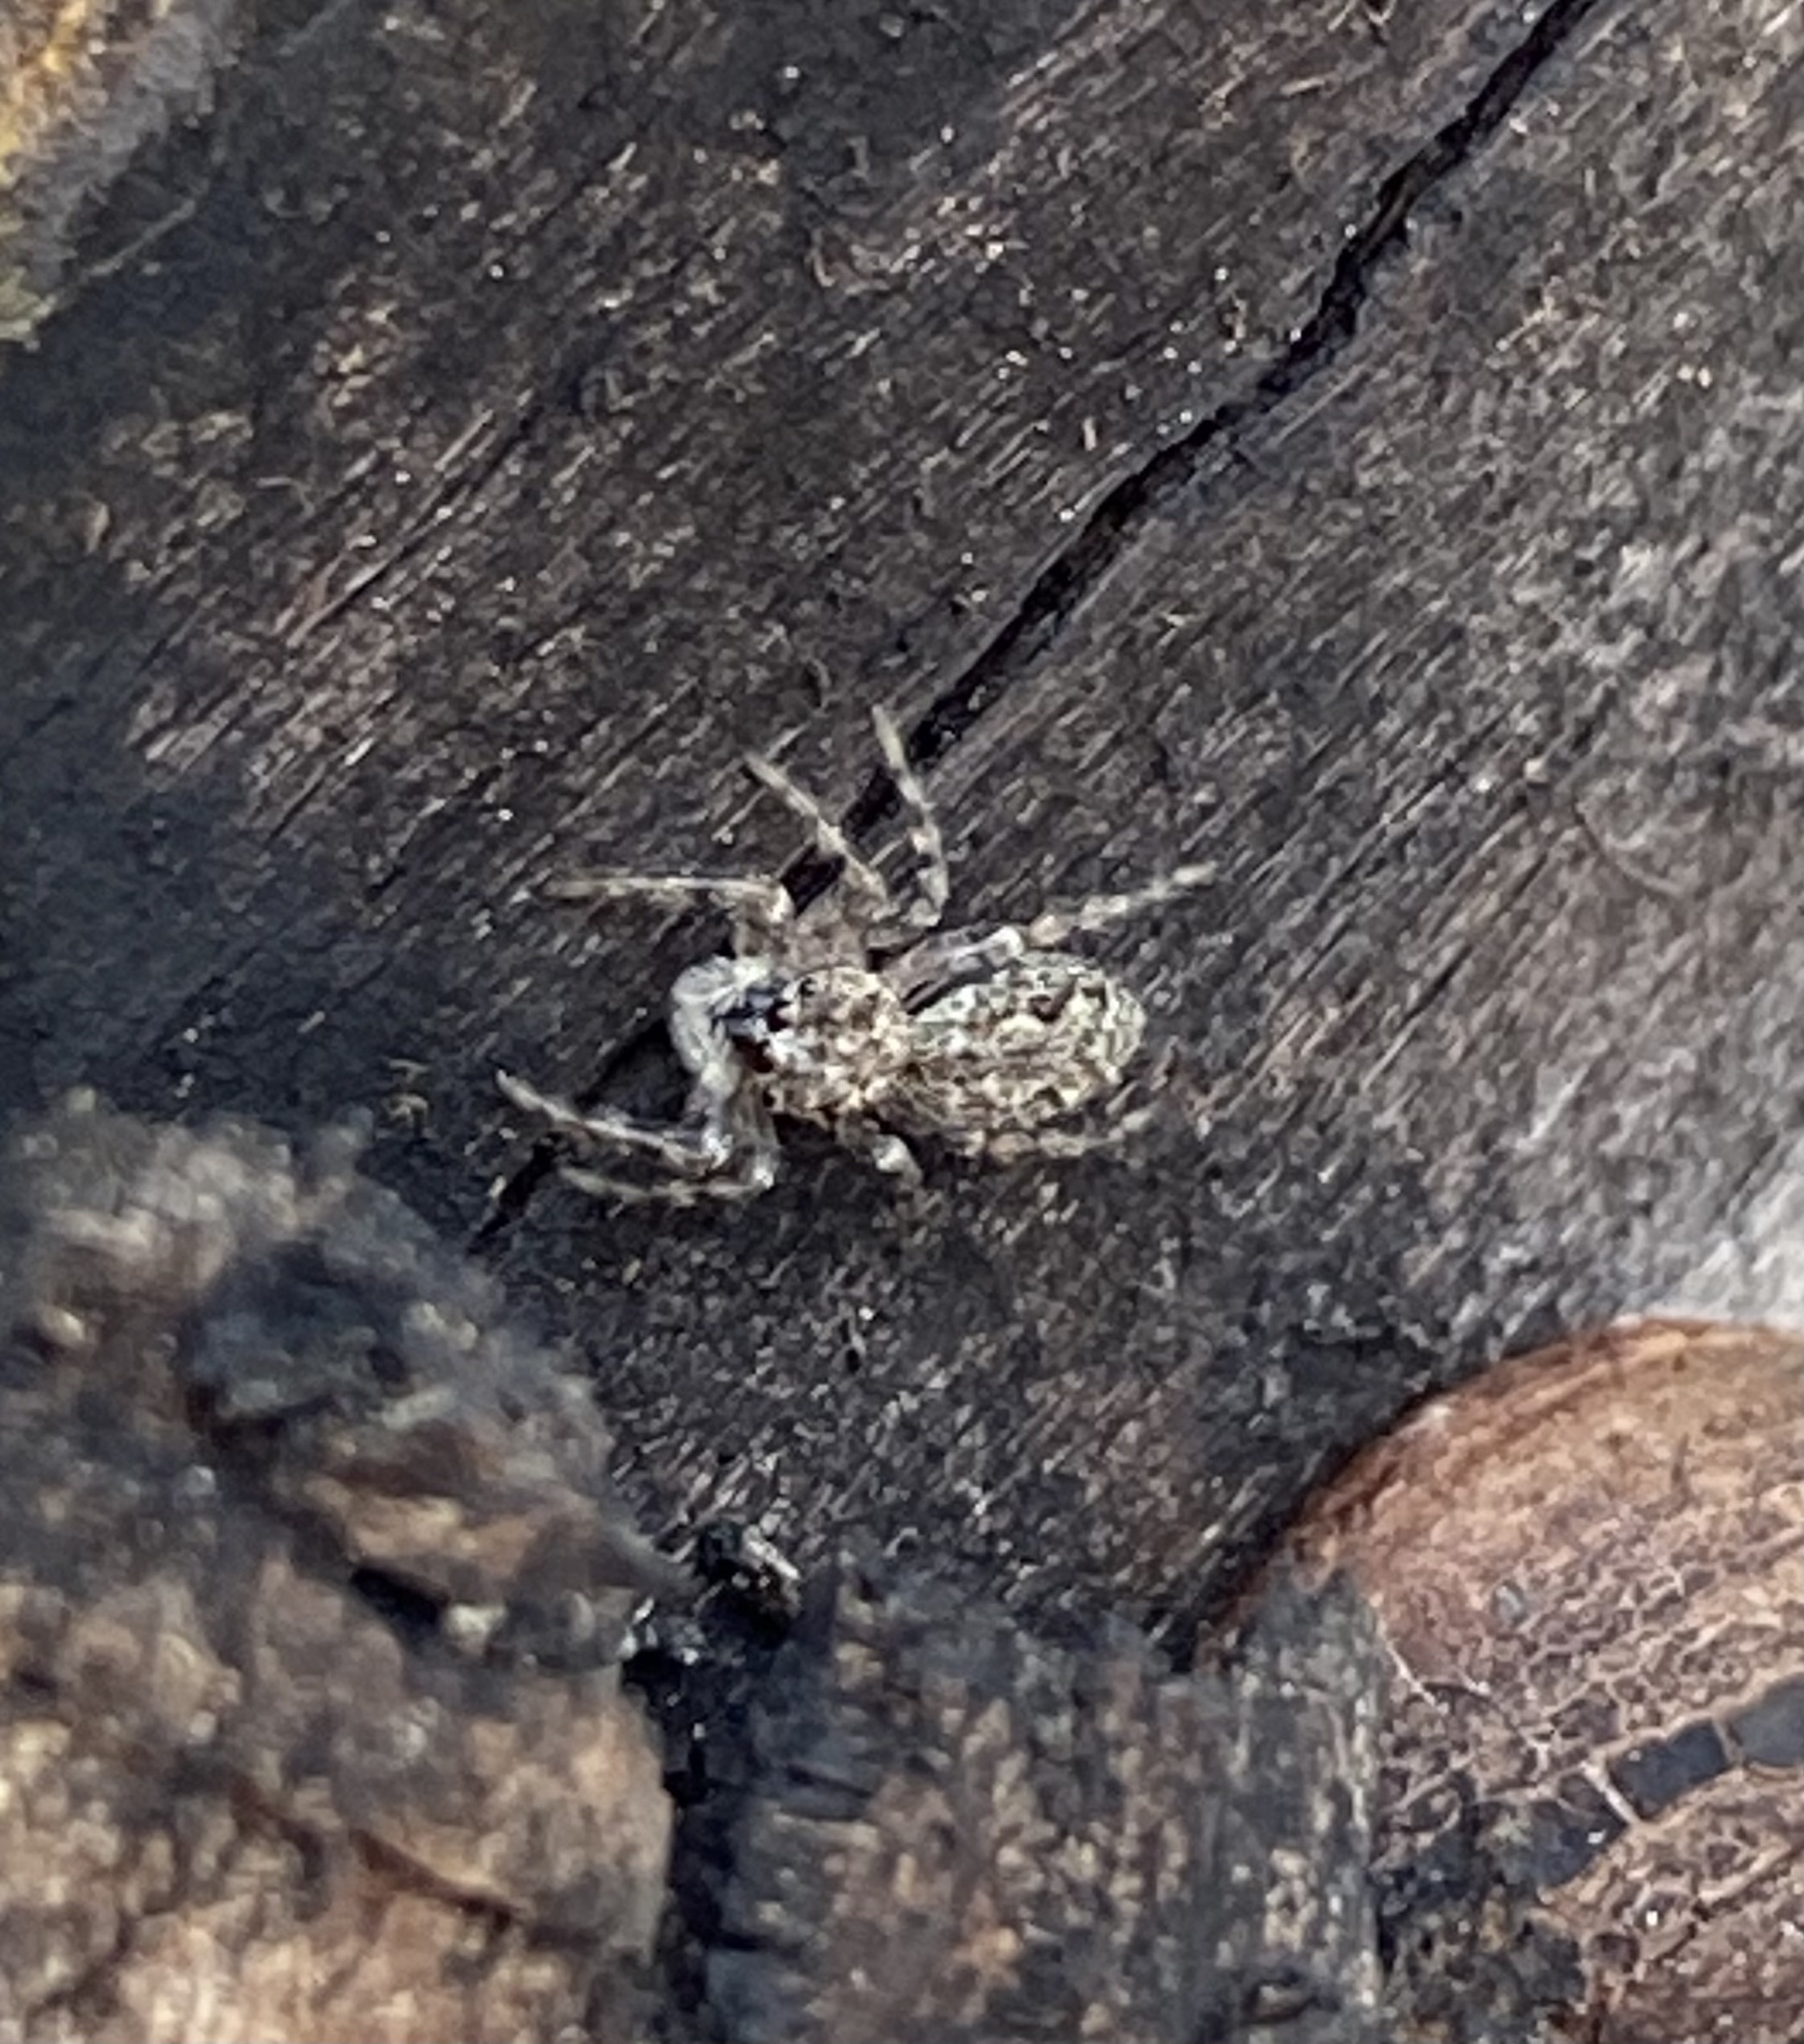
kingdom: Animalia
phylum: Arthropoda
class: Arachnida
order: Araneae
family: Salticidae
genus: Platycryptus
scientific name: Platycryptus undatus
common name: Tan jumping spider
